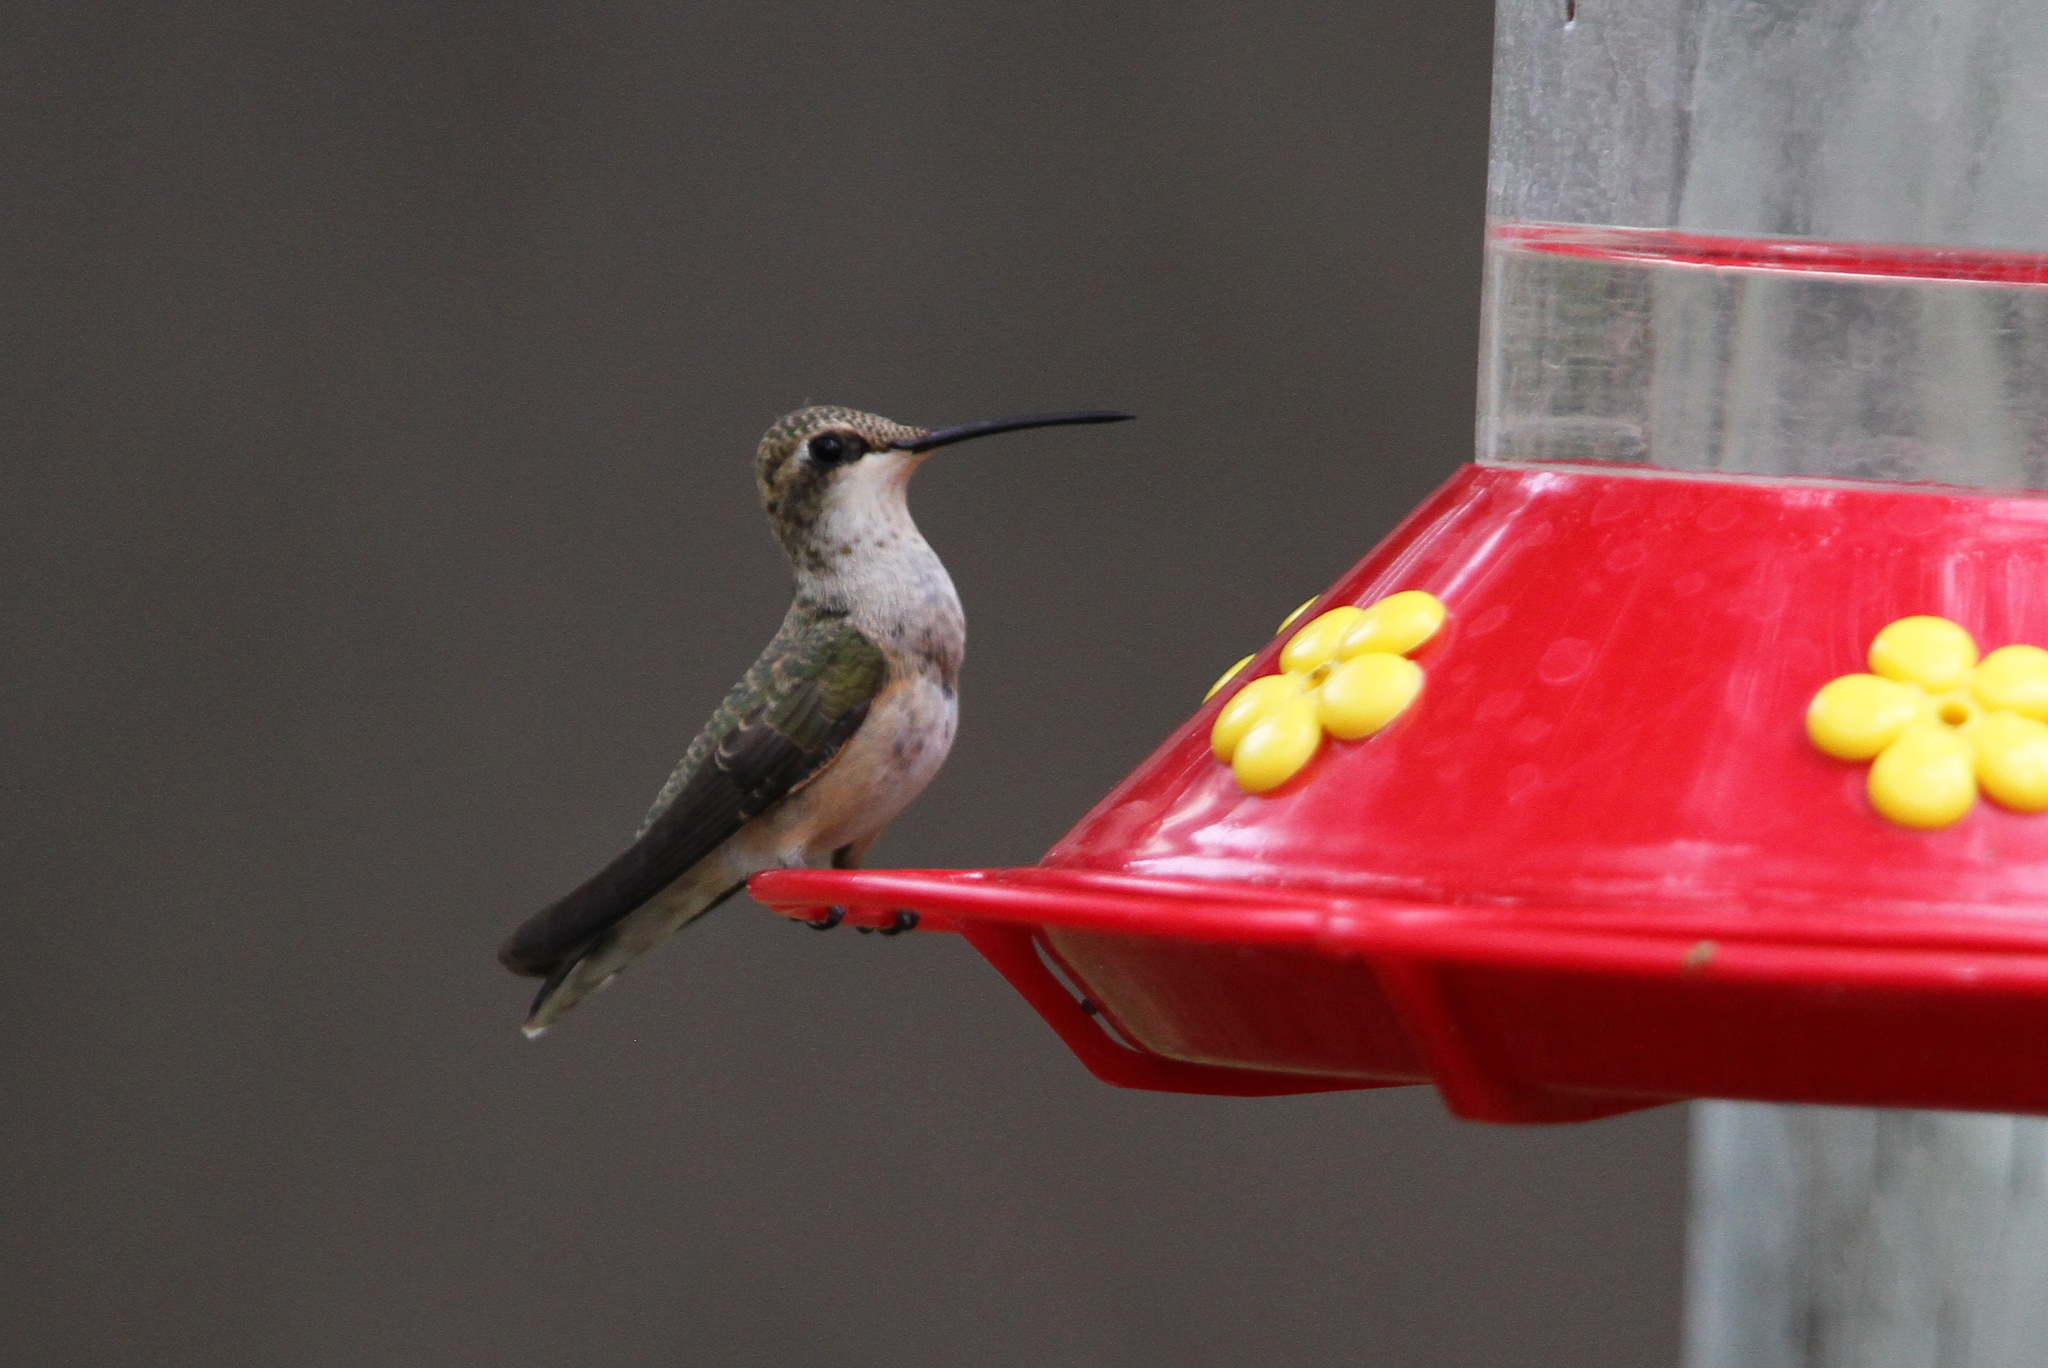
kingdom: Animalia
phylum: Chordata
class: Aves
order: Apodiformes
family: Trochilidae
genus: Archilochus
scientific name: Archilochus alexandri
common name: Black-chinned hummingbird
